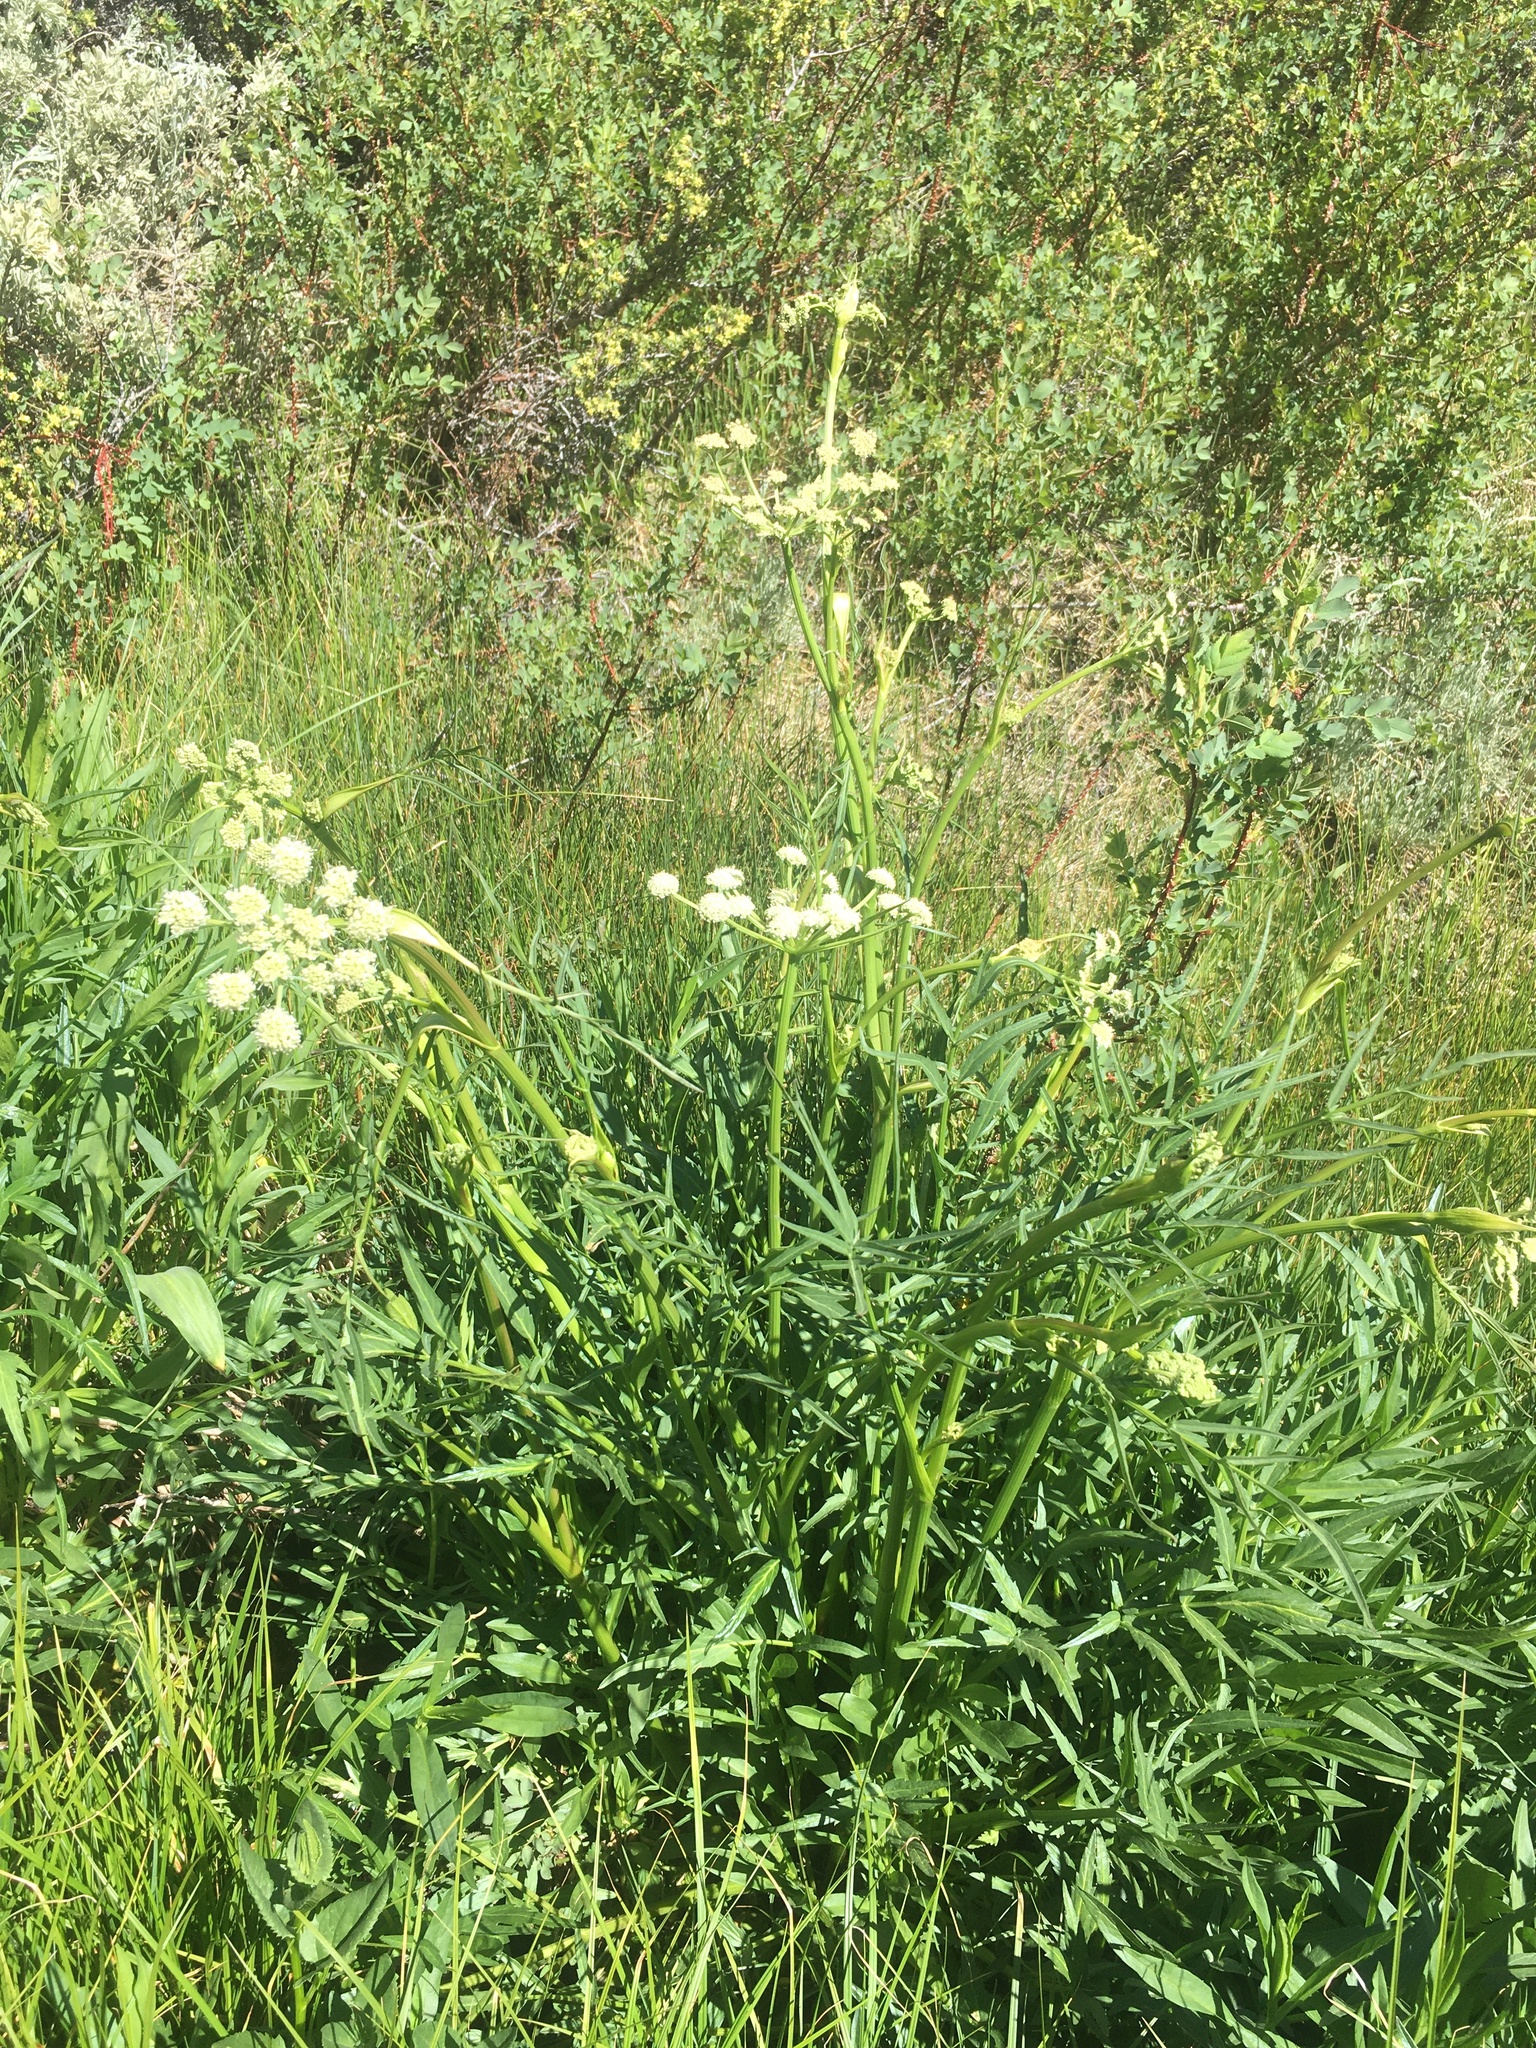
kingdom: Plantae
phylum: Tracheophyta
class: Magnoliopsida
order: Apiales
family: Apiaceae
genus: Angelica
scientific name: Angelica kingii
